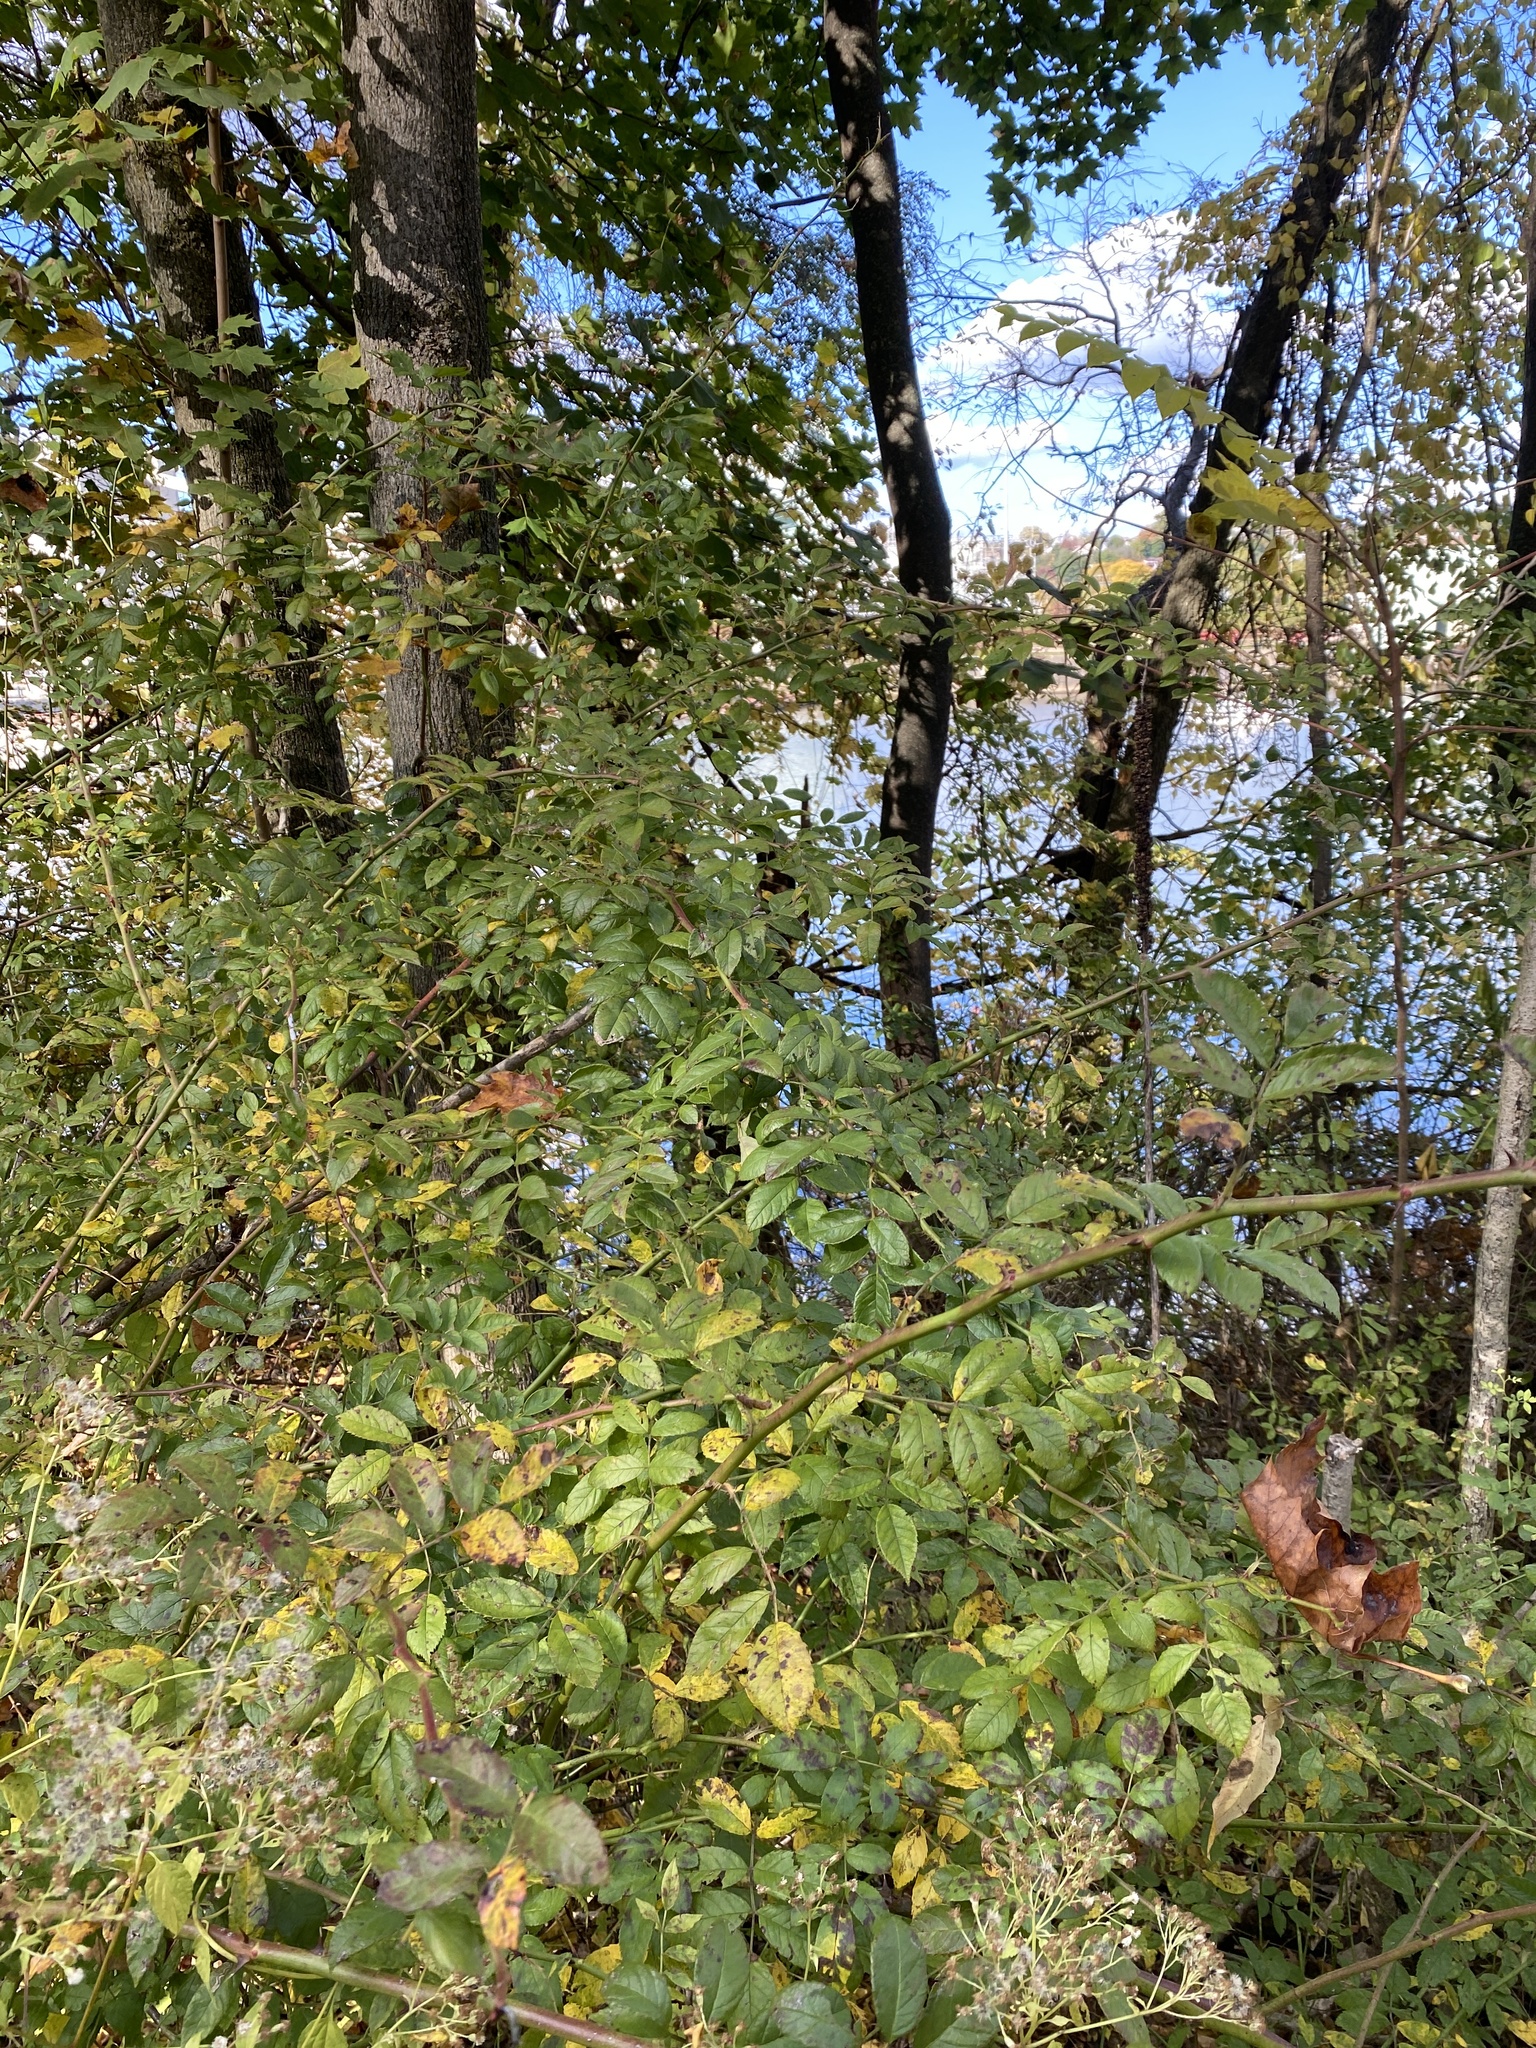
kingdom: Plantae
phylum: Tracheophyta
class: Magnoliopsida
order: Rosales
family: Rosaceae
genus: Rosa
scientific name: Rosa multiflora
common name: Multiflora rose
